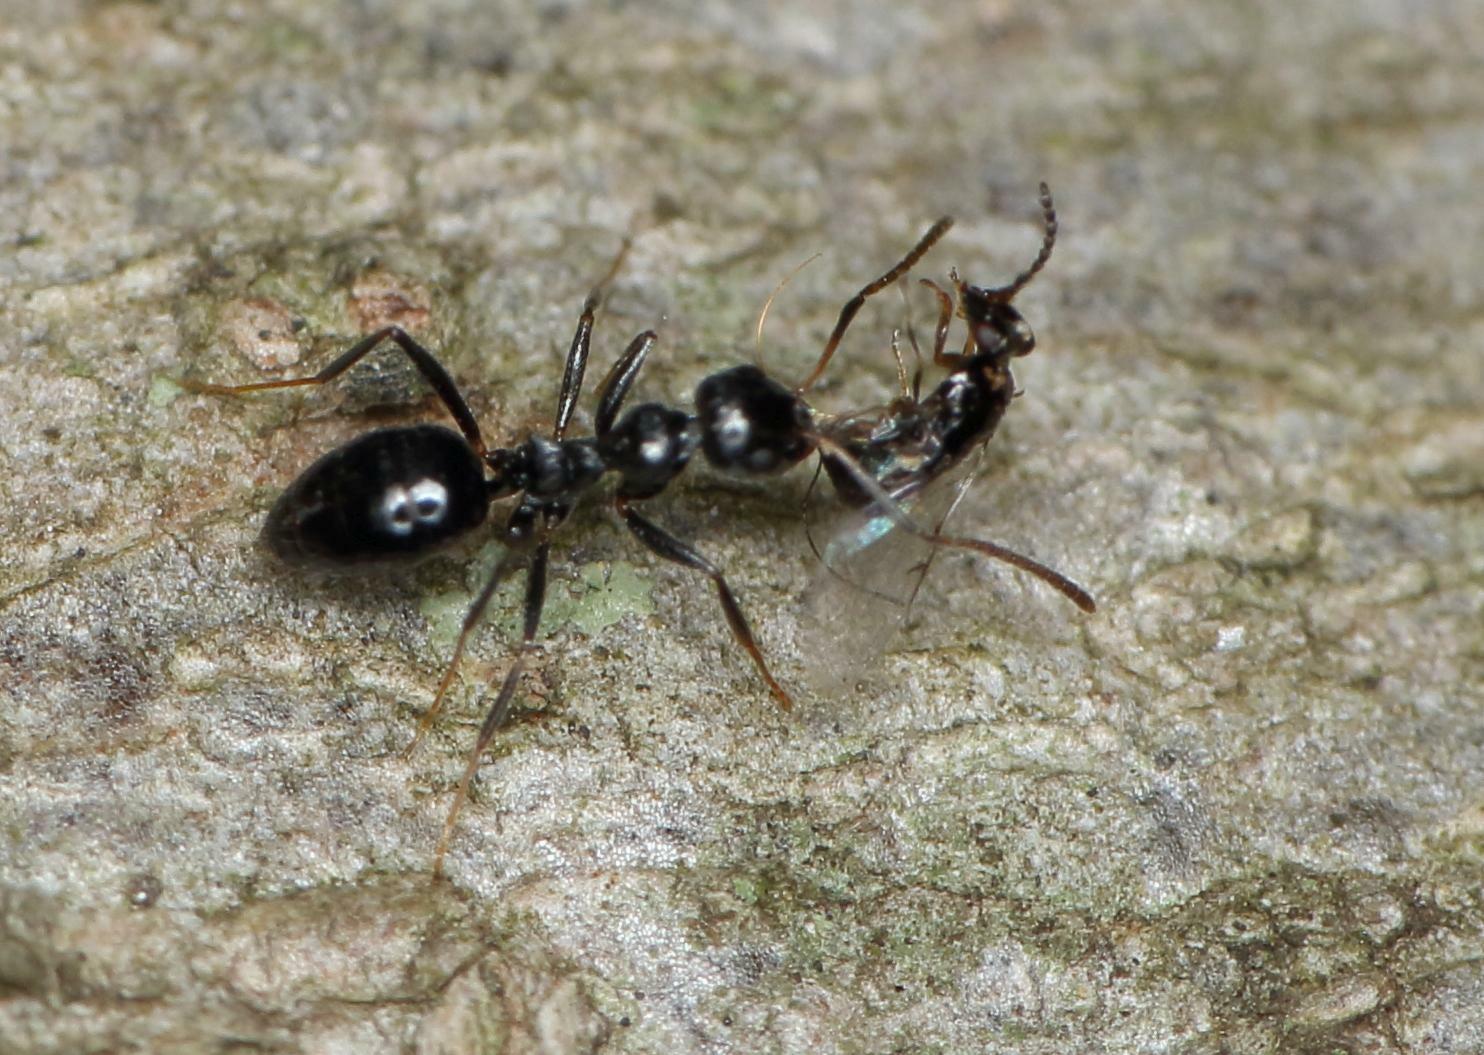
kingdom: Animalia
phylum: Arthropoda
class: Insecta
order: Hymenoptera
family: Agaonidae
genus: Elisabethiella
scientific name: Elisabethiella stueckenbergi
